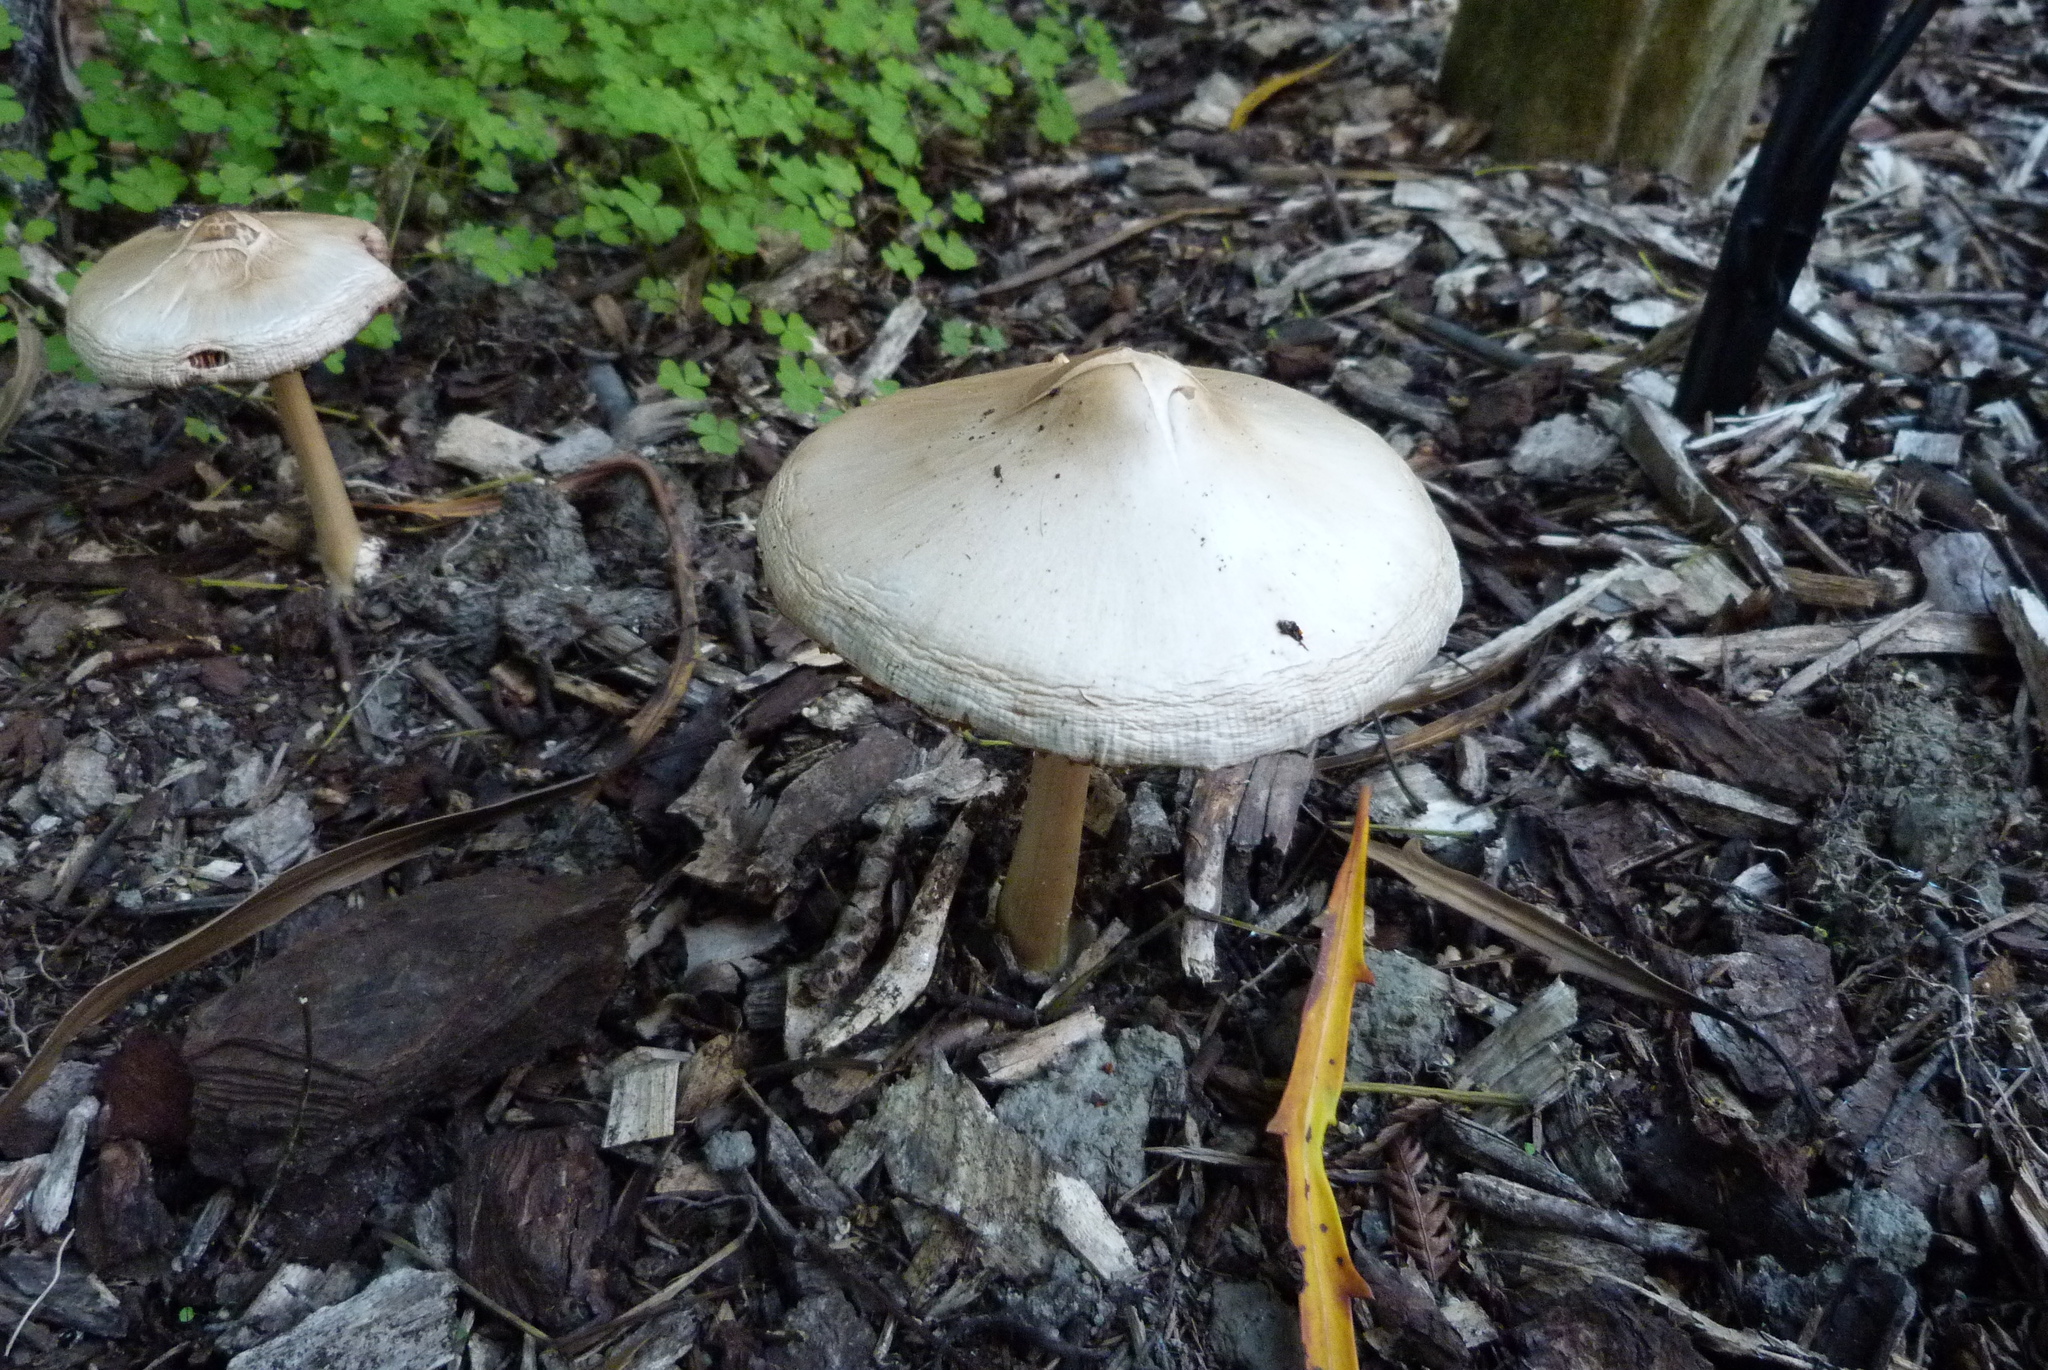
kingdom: Fungi
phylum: Basidiomycota
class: Agaricomycetes
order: Agaricales
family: Pluteaceae
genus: Volvopluteus
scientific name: Volvopluteus gloiocephalus
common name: Stubble rosegill
